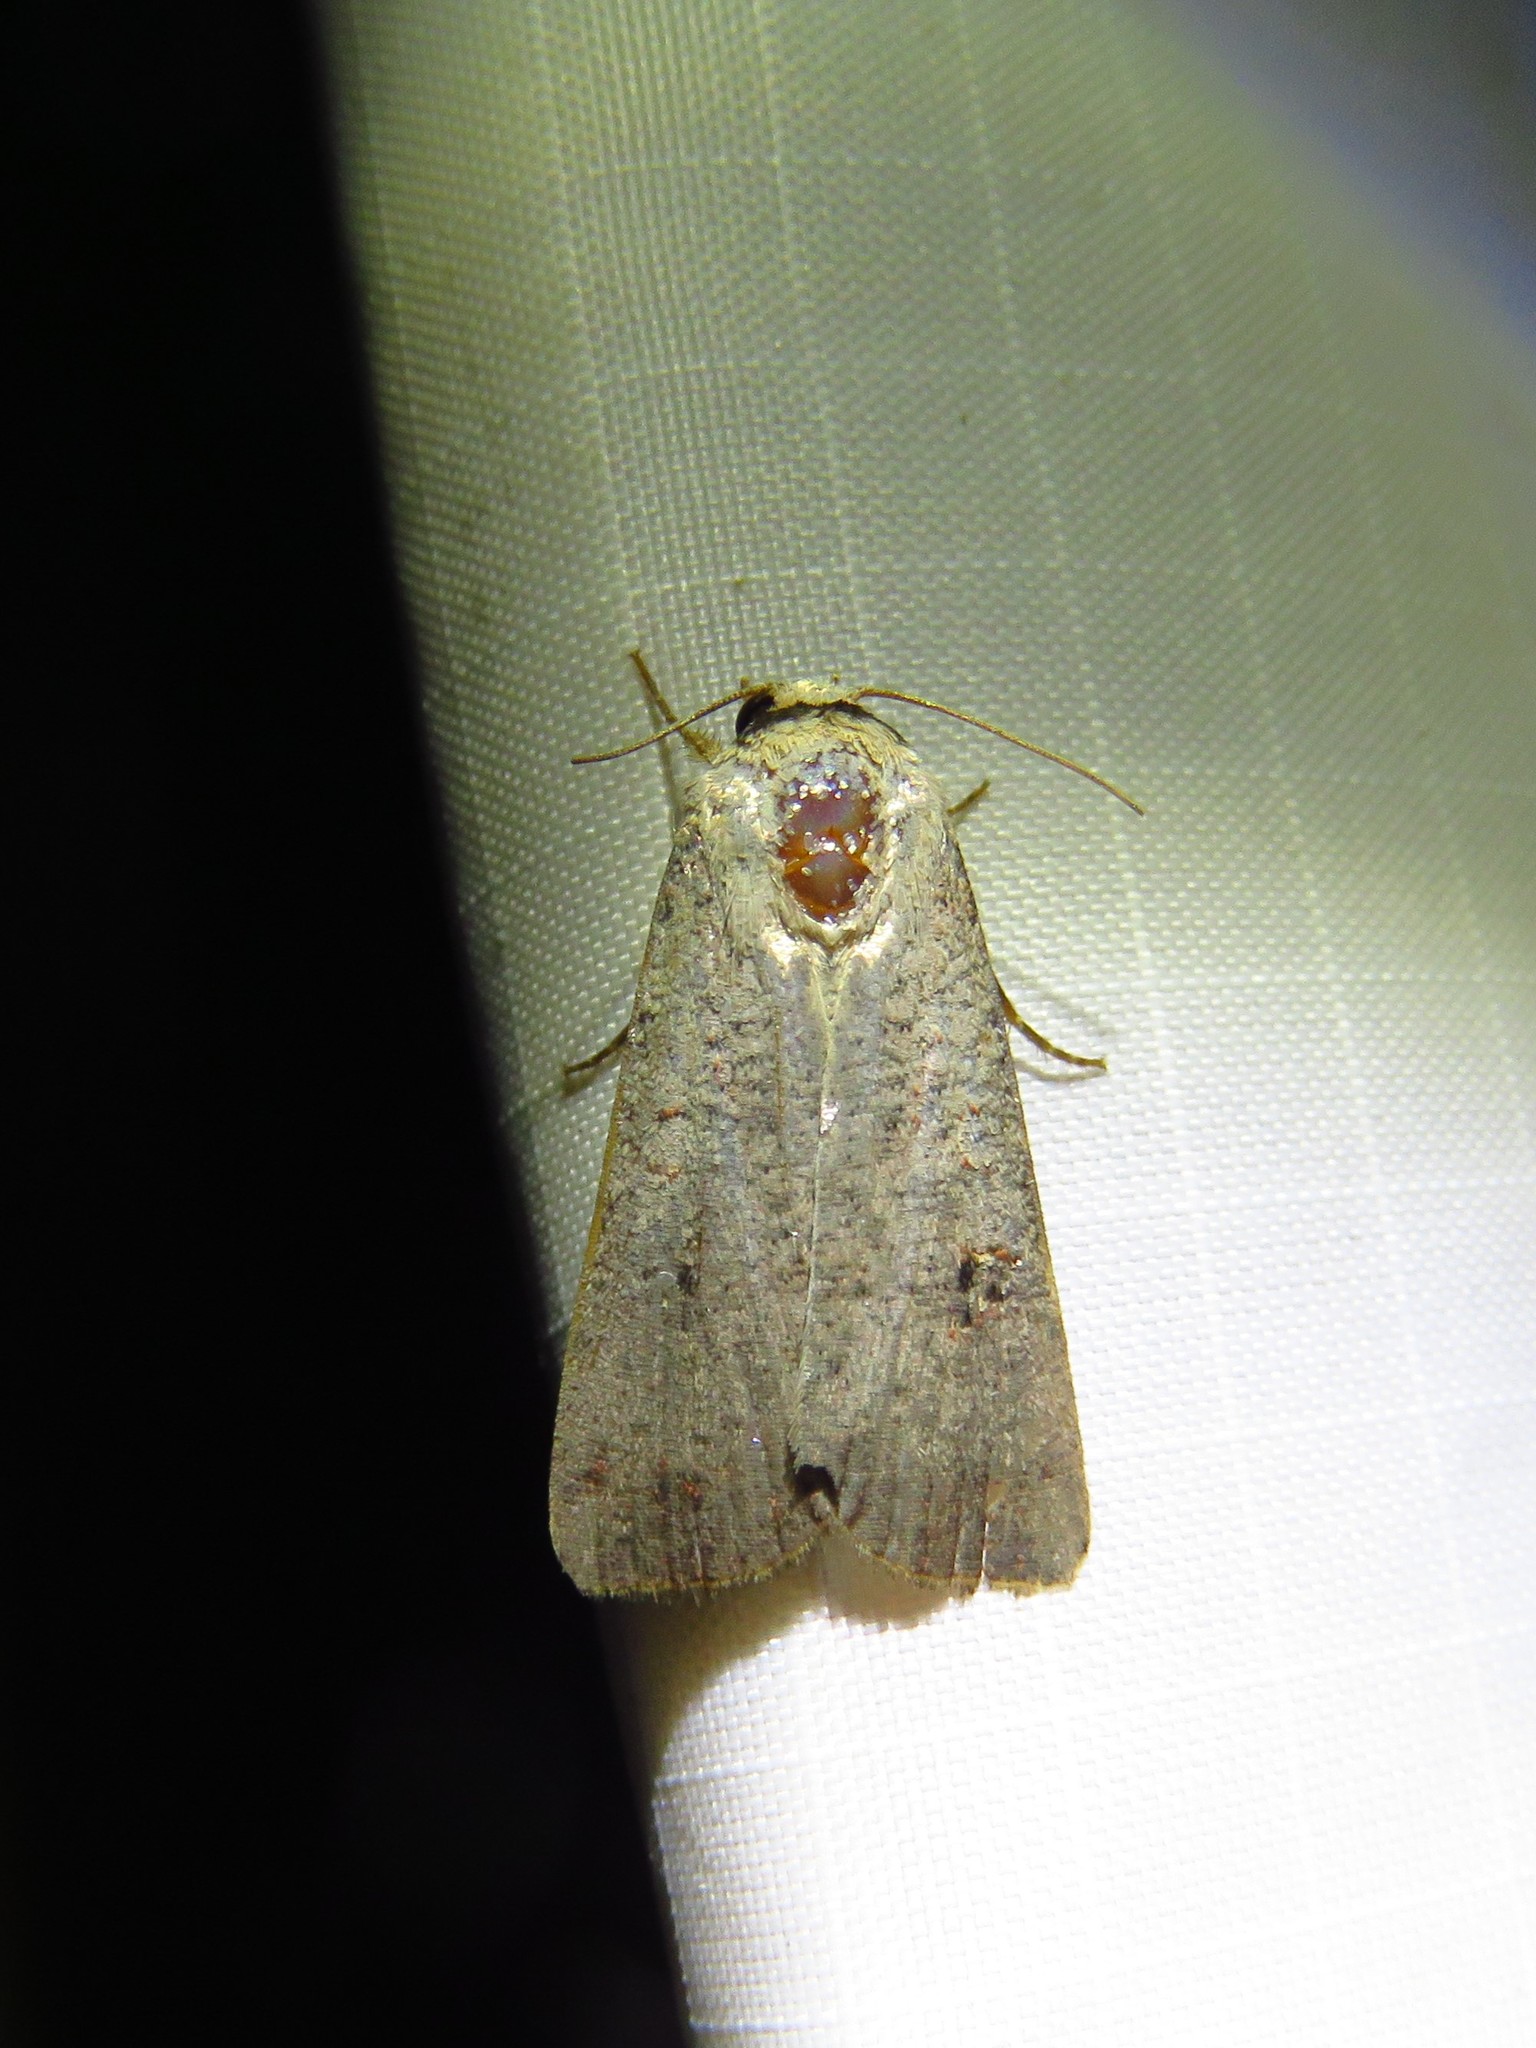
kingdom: Animalia
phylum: Arthropoda
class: Insecta
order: Lepidoptera
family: Noctuidae
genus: Anicla
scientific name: Anicla infecta
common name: Green cutworm
